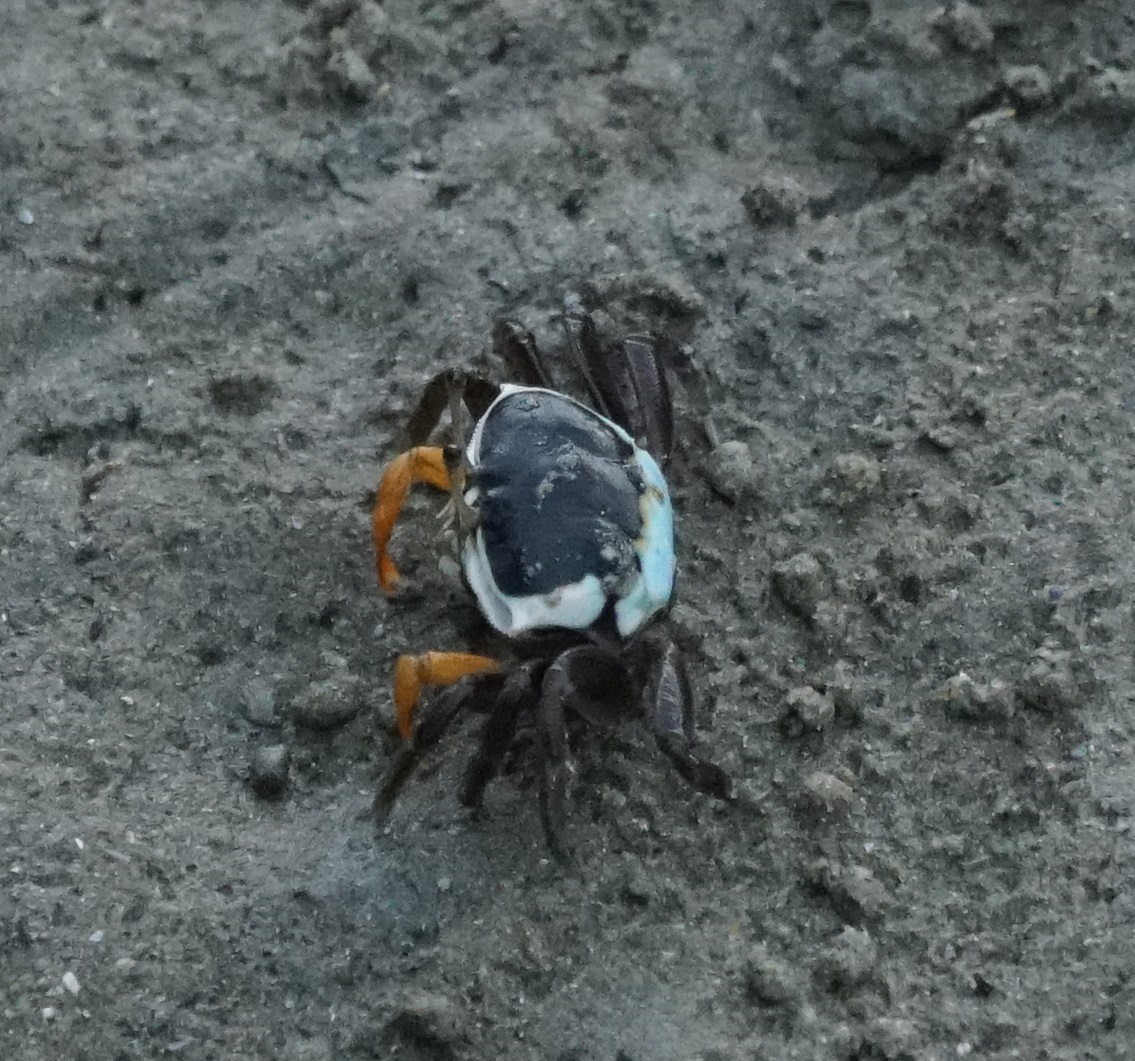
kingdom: Animalia
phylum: Arthropoda
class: Malacostraca
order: Decapoda
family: Ocypodidae
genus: Gelasimus
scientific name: Gelasimus vomeris
